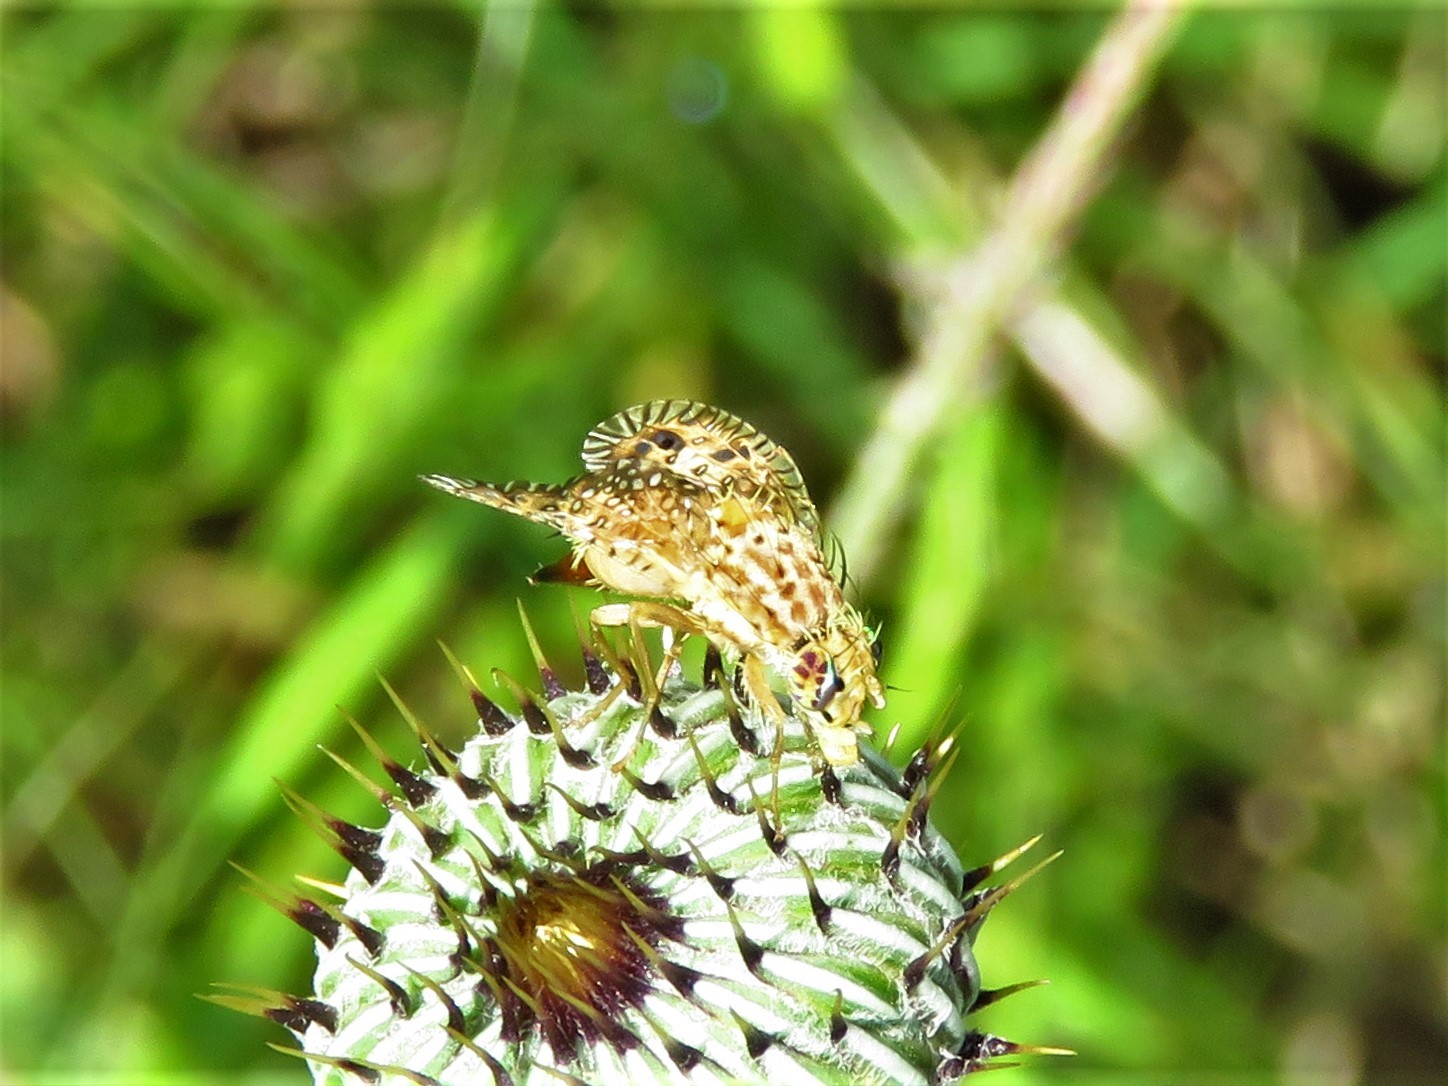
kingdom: Animalia
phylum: Arthropoda
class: Insecta
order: Diptera
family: Tephritidae
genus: Paracantha
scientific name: Paracantha culta
